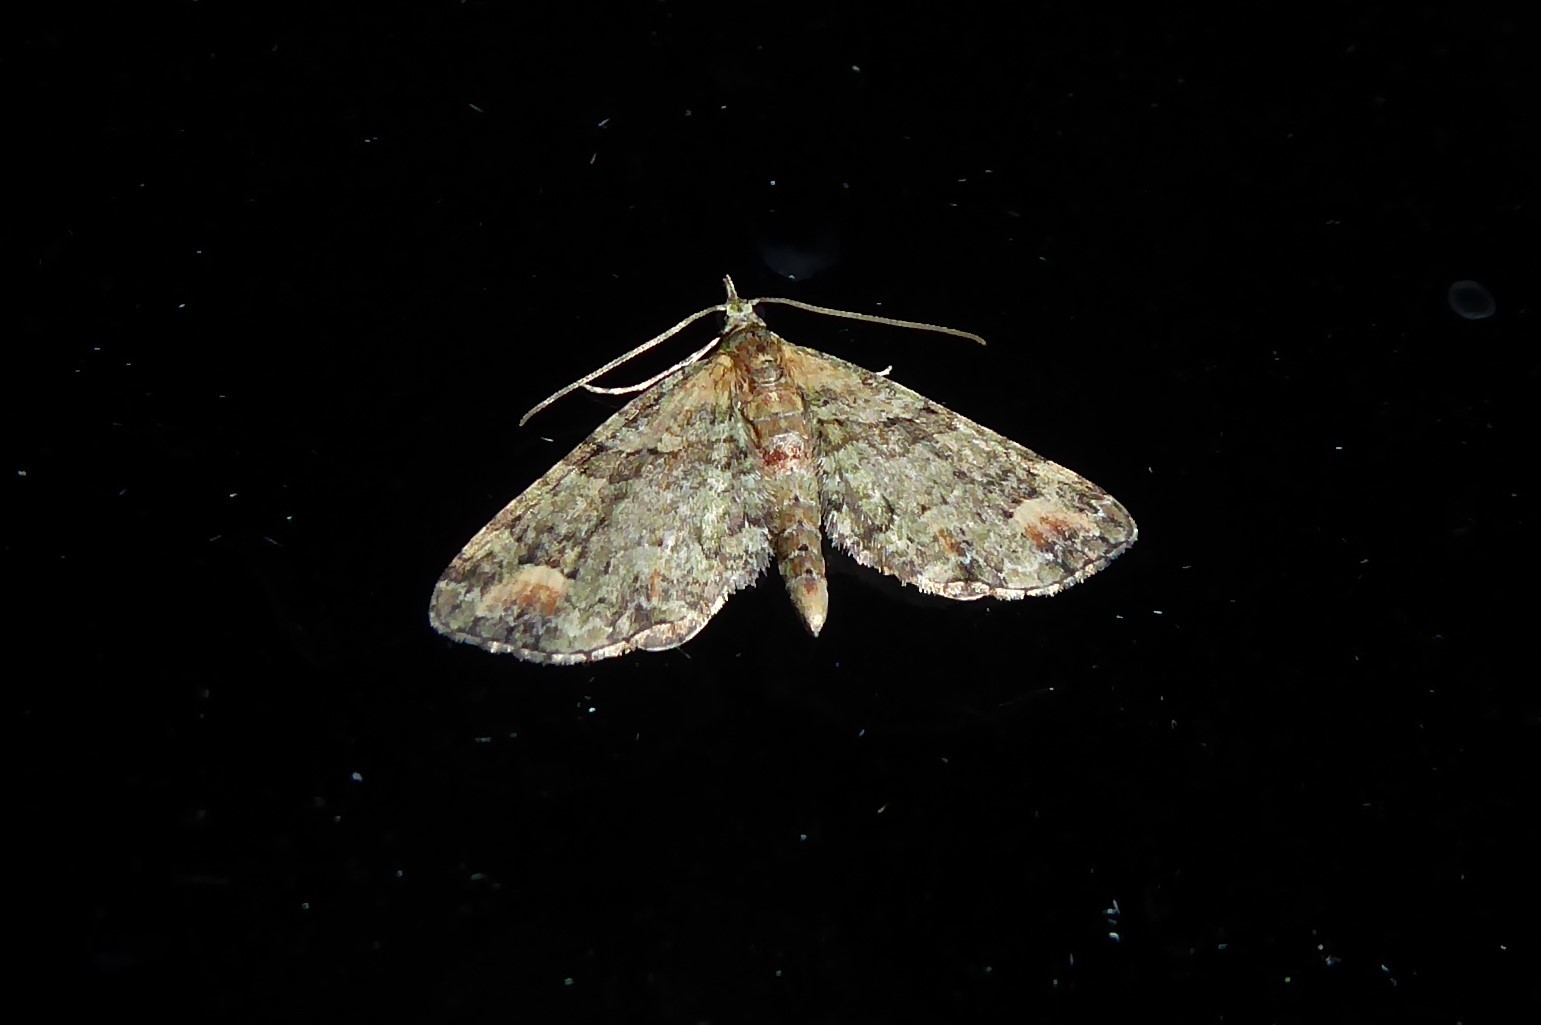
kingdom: Animalia
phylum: Arthropoda
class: Insecta
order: Lepidoptera
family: Geometridae
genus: Idaea
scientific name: Idaea mutanda
